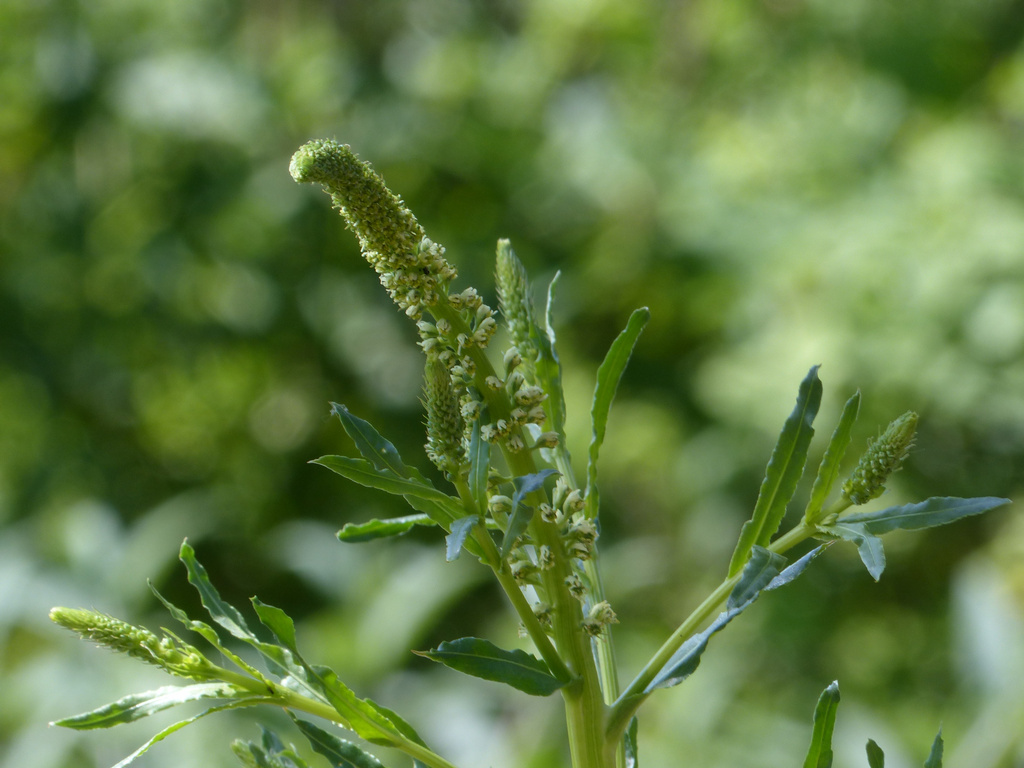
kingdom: Plantae
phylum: Tracheophyta
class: Magnoliopsida
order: Brassicales
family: Resedaceae
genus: Reseda
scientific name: Reseda luteola
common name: Weld
